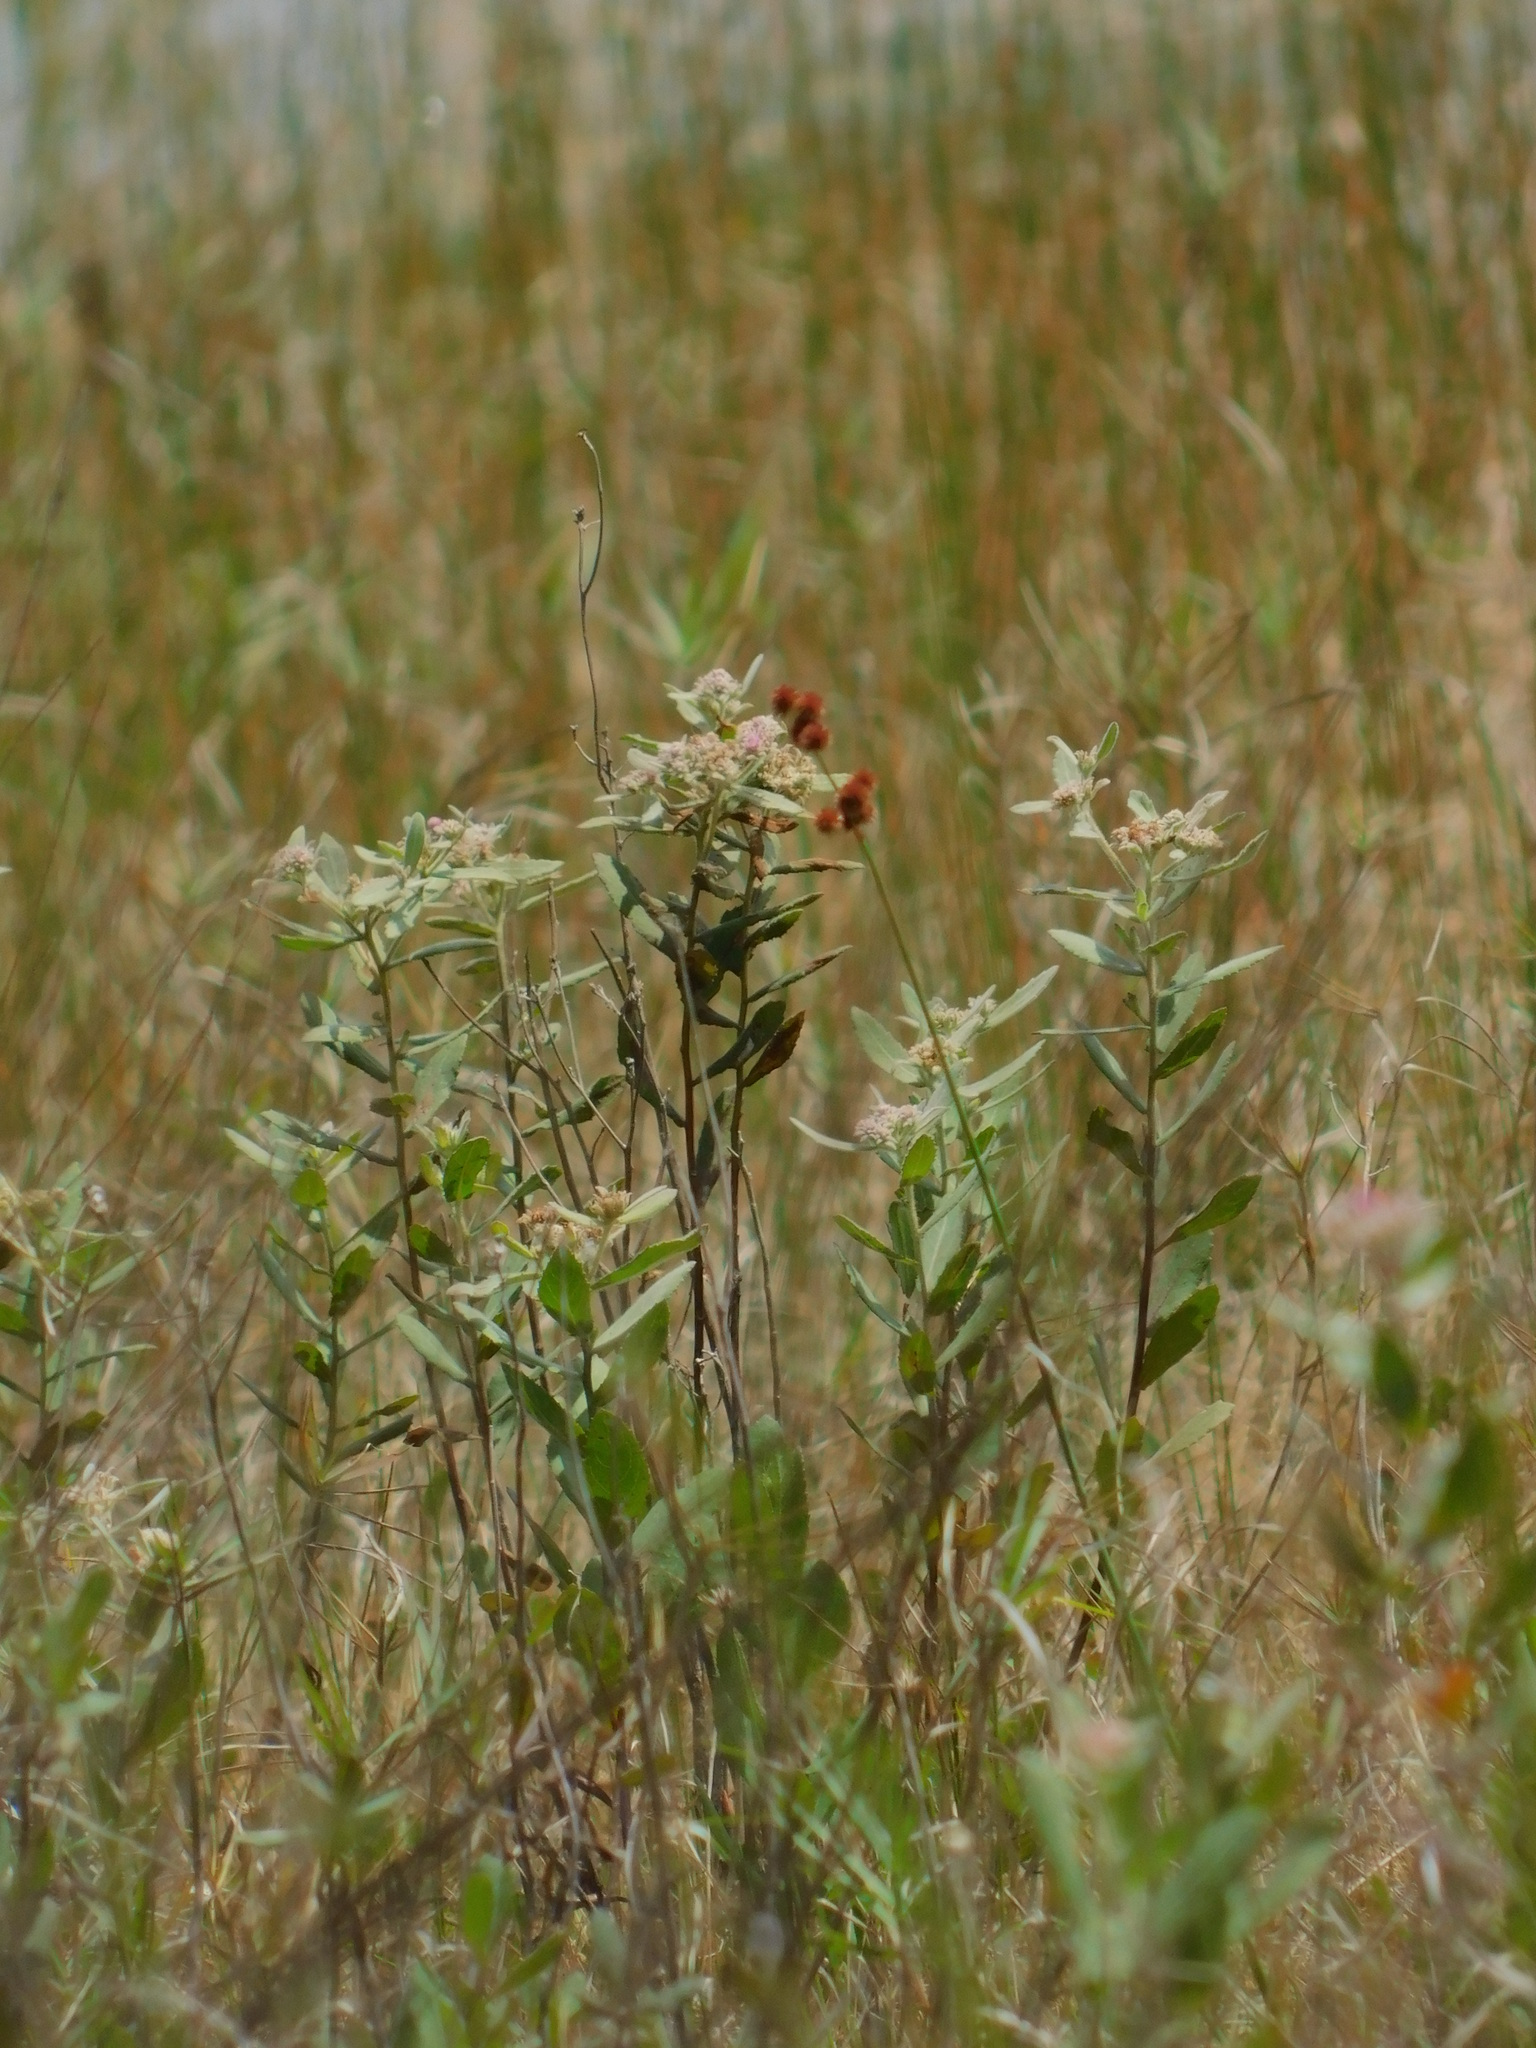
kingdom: Plantae
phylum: Tracheophyta
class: Magnoliopsida
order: Asterales
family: Asteraceae
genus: Pluchea
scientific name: Pluchea baccharis
